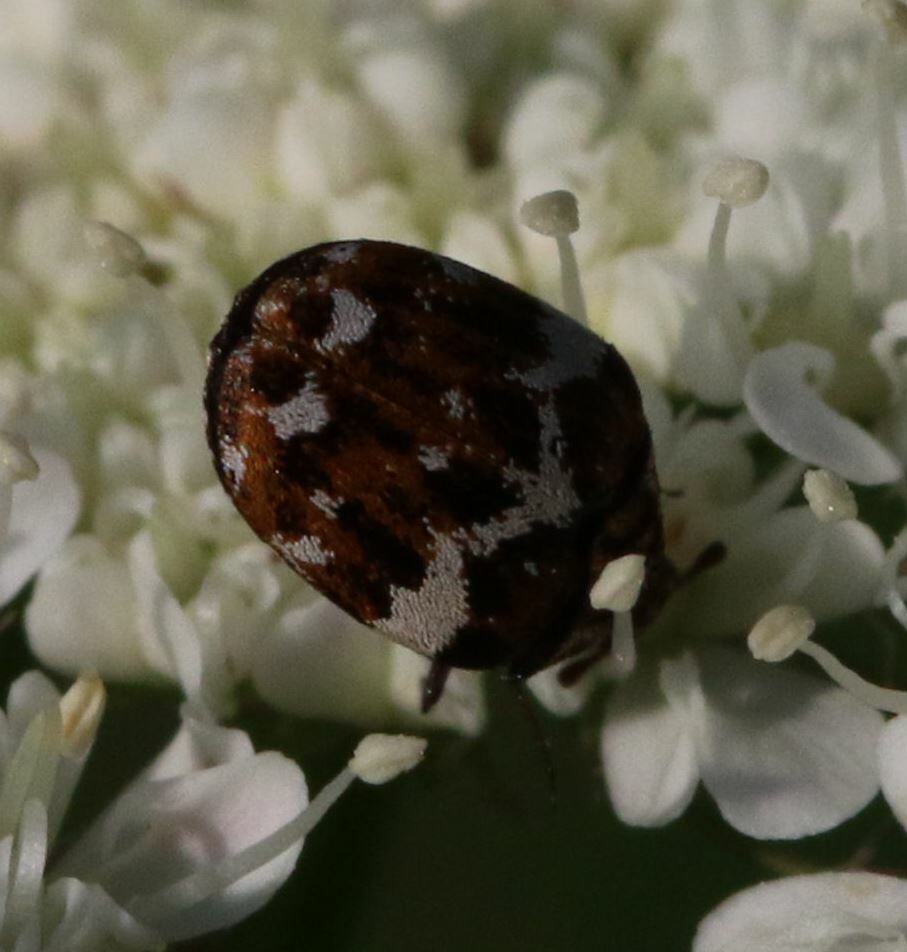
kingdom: Animalia
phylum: Arthropoda
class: Insecta
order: Coleoptera
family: Dermestidae
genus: Anthrenus
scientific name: Anthrenus angustefasciatus
